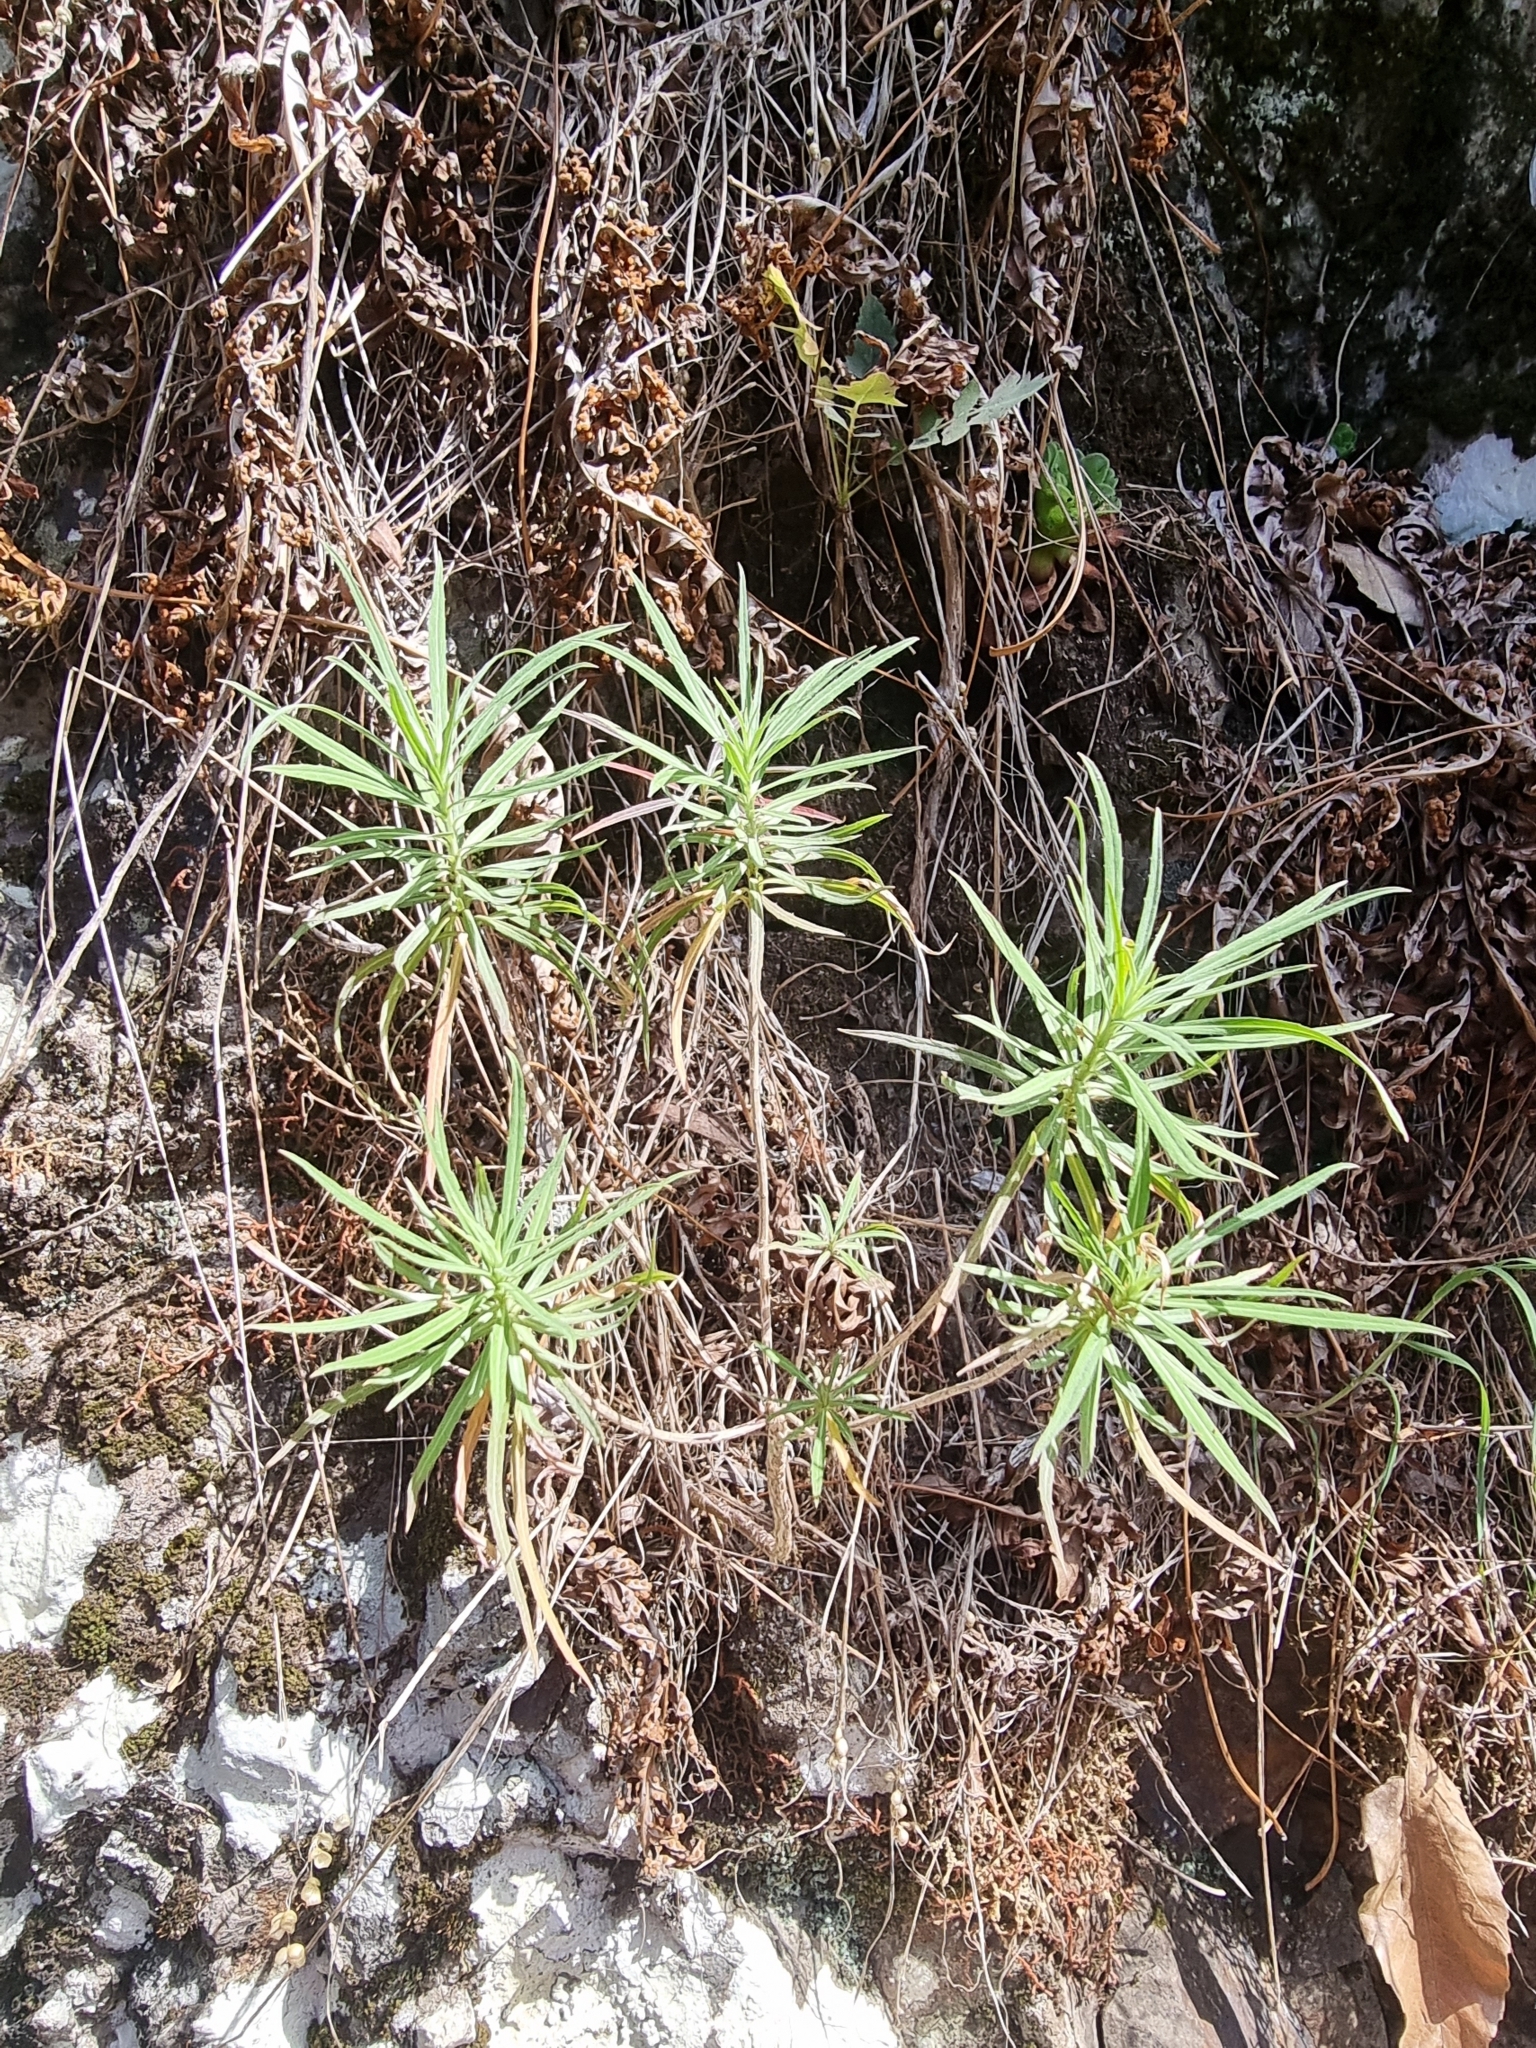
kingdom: Plantae
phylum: Tracheophyta
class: Magnoliopsida
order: Brassicales
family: Brassicaceae
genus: Erysimum
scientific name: Erysimum bicolor
